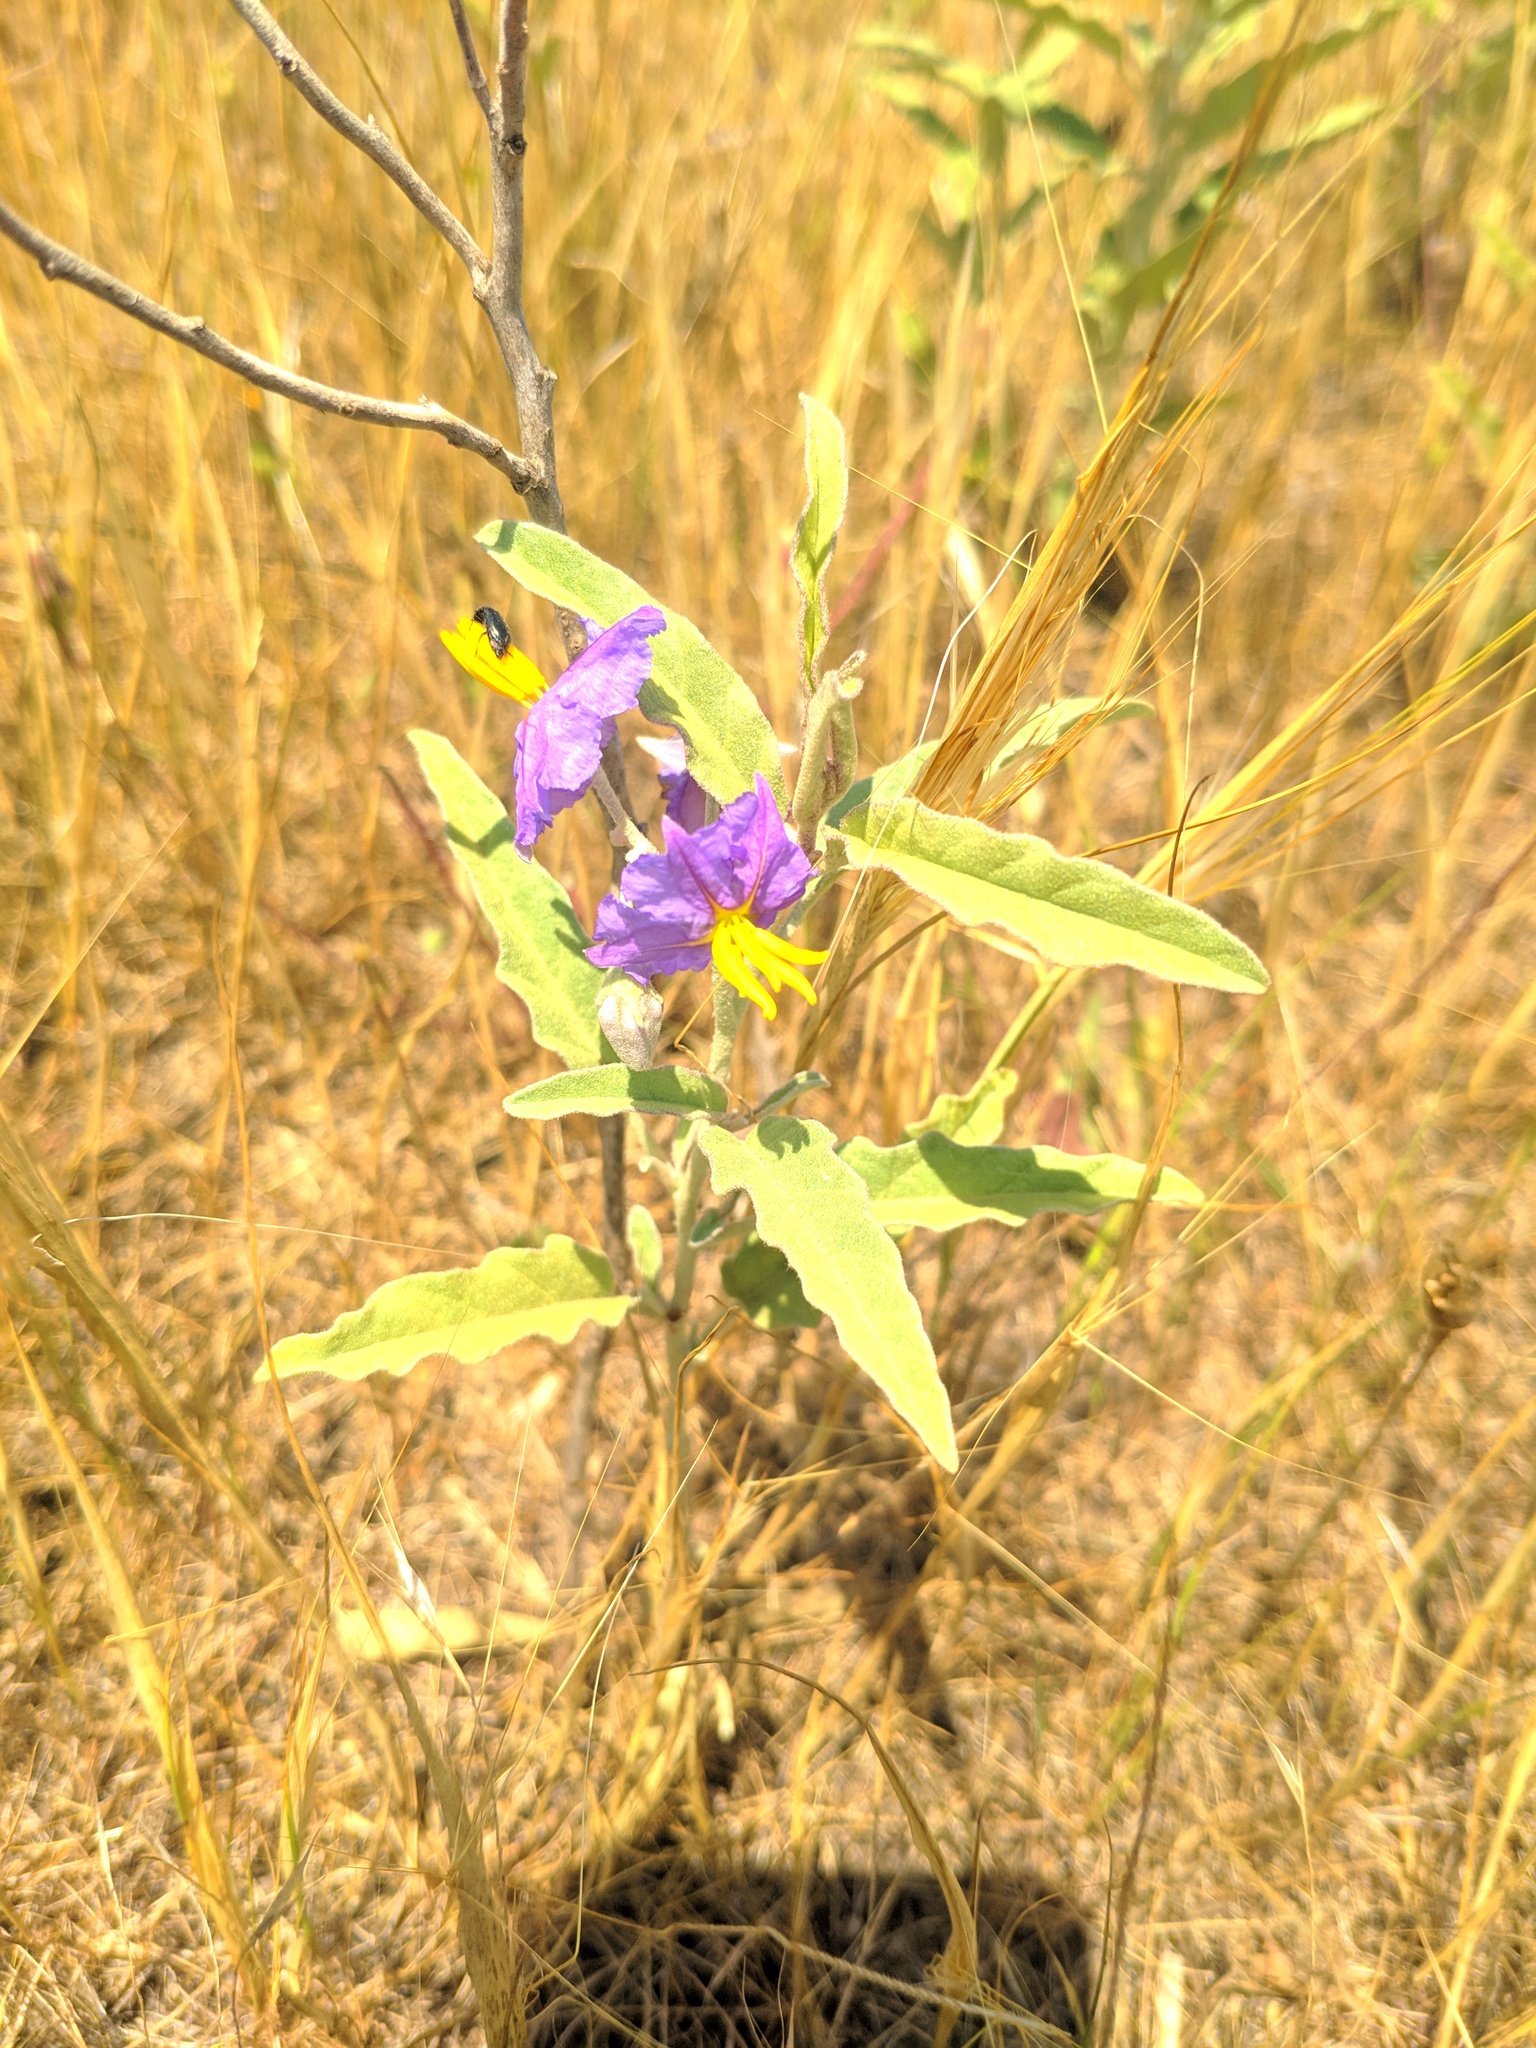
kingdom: Plantae
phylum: Tracheophyta
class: Magnoliopsida
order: Solanales
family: Solanaceae
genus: Solanum
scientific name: Solanum elaeagnifolium
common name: Silverleaf nightshade
